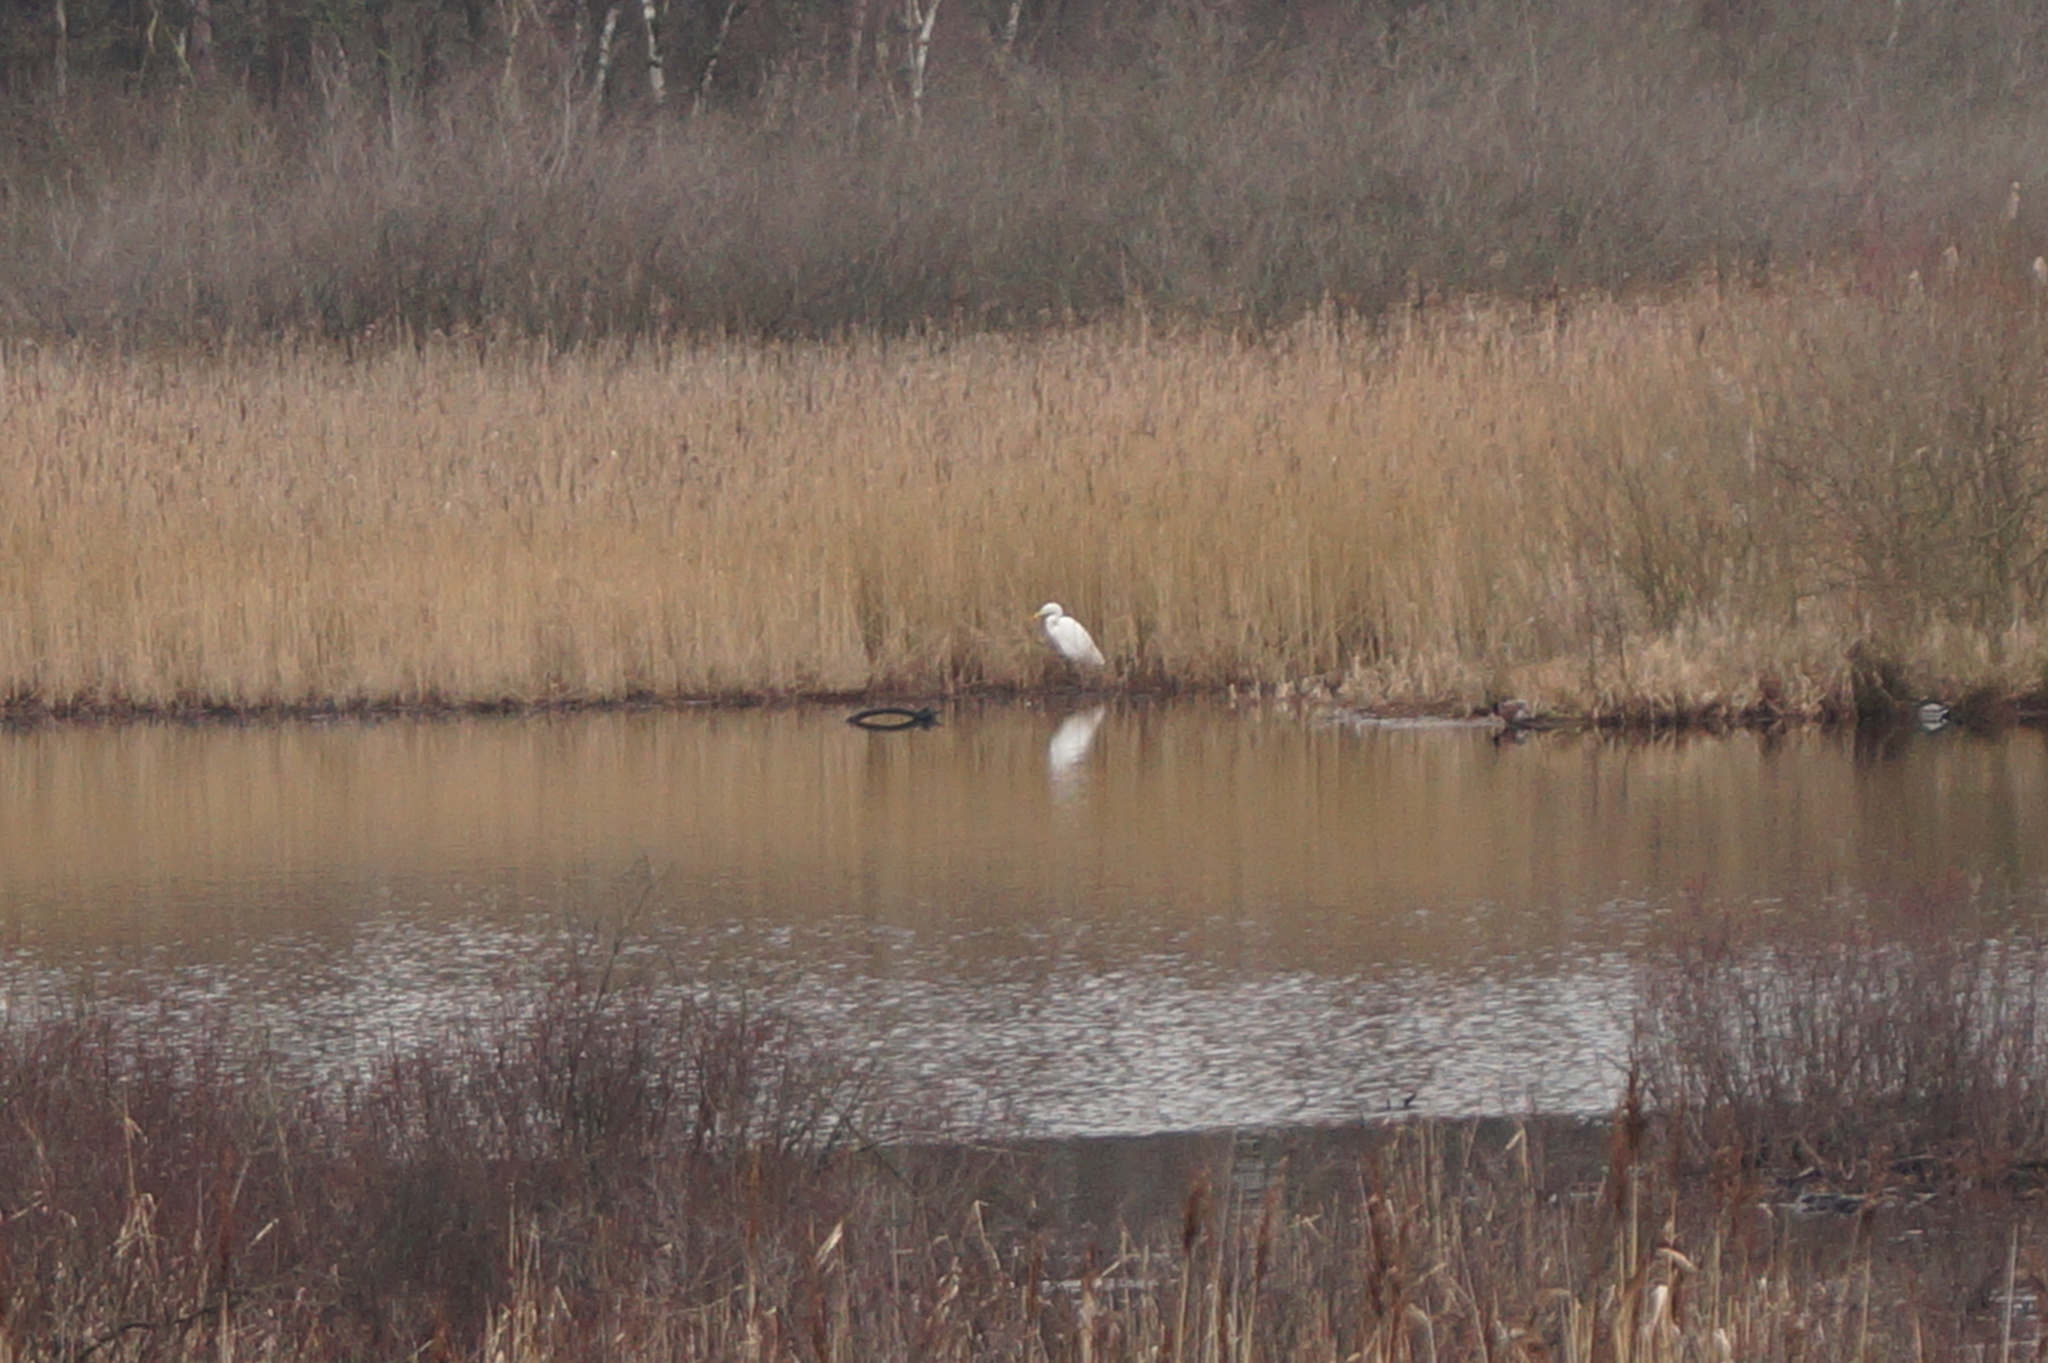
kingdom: Animalia
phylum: Chordata
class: Aves
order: Pelecaniformes
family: Ardeidae
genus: Ardea
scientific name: Ardea alba
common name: Great egret
